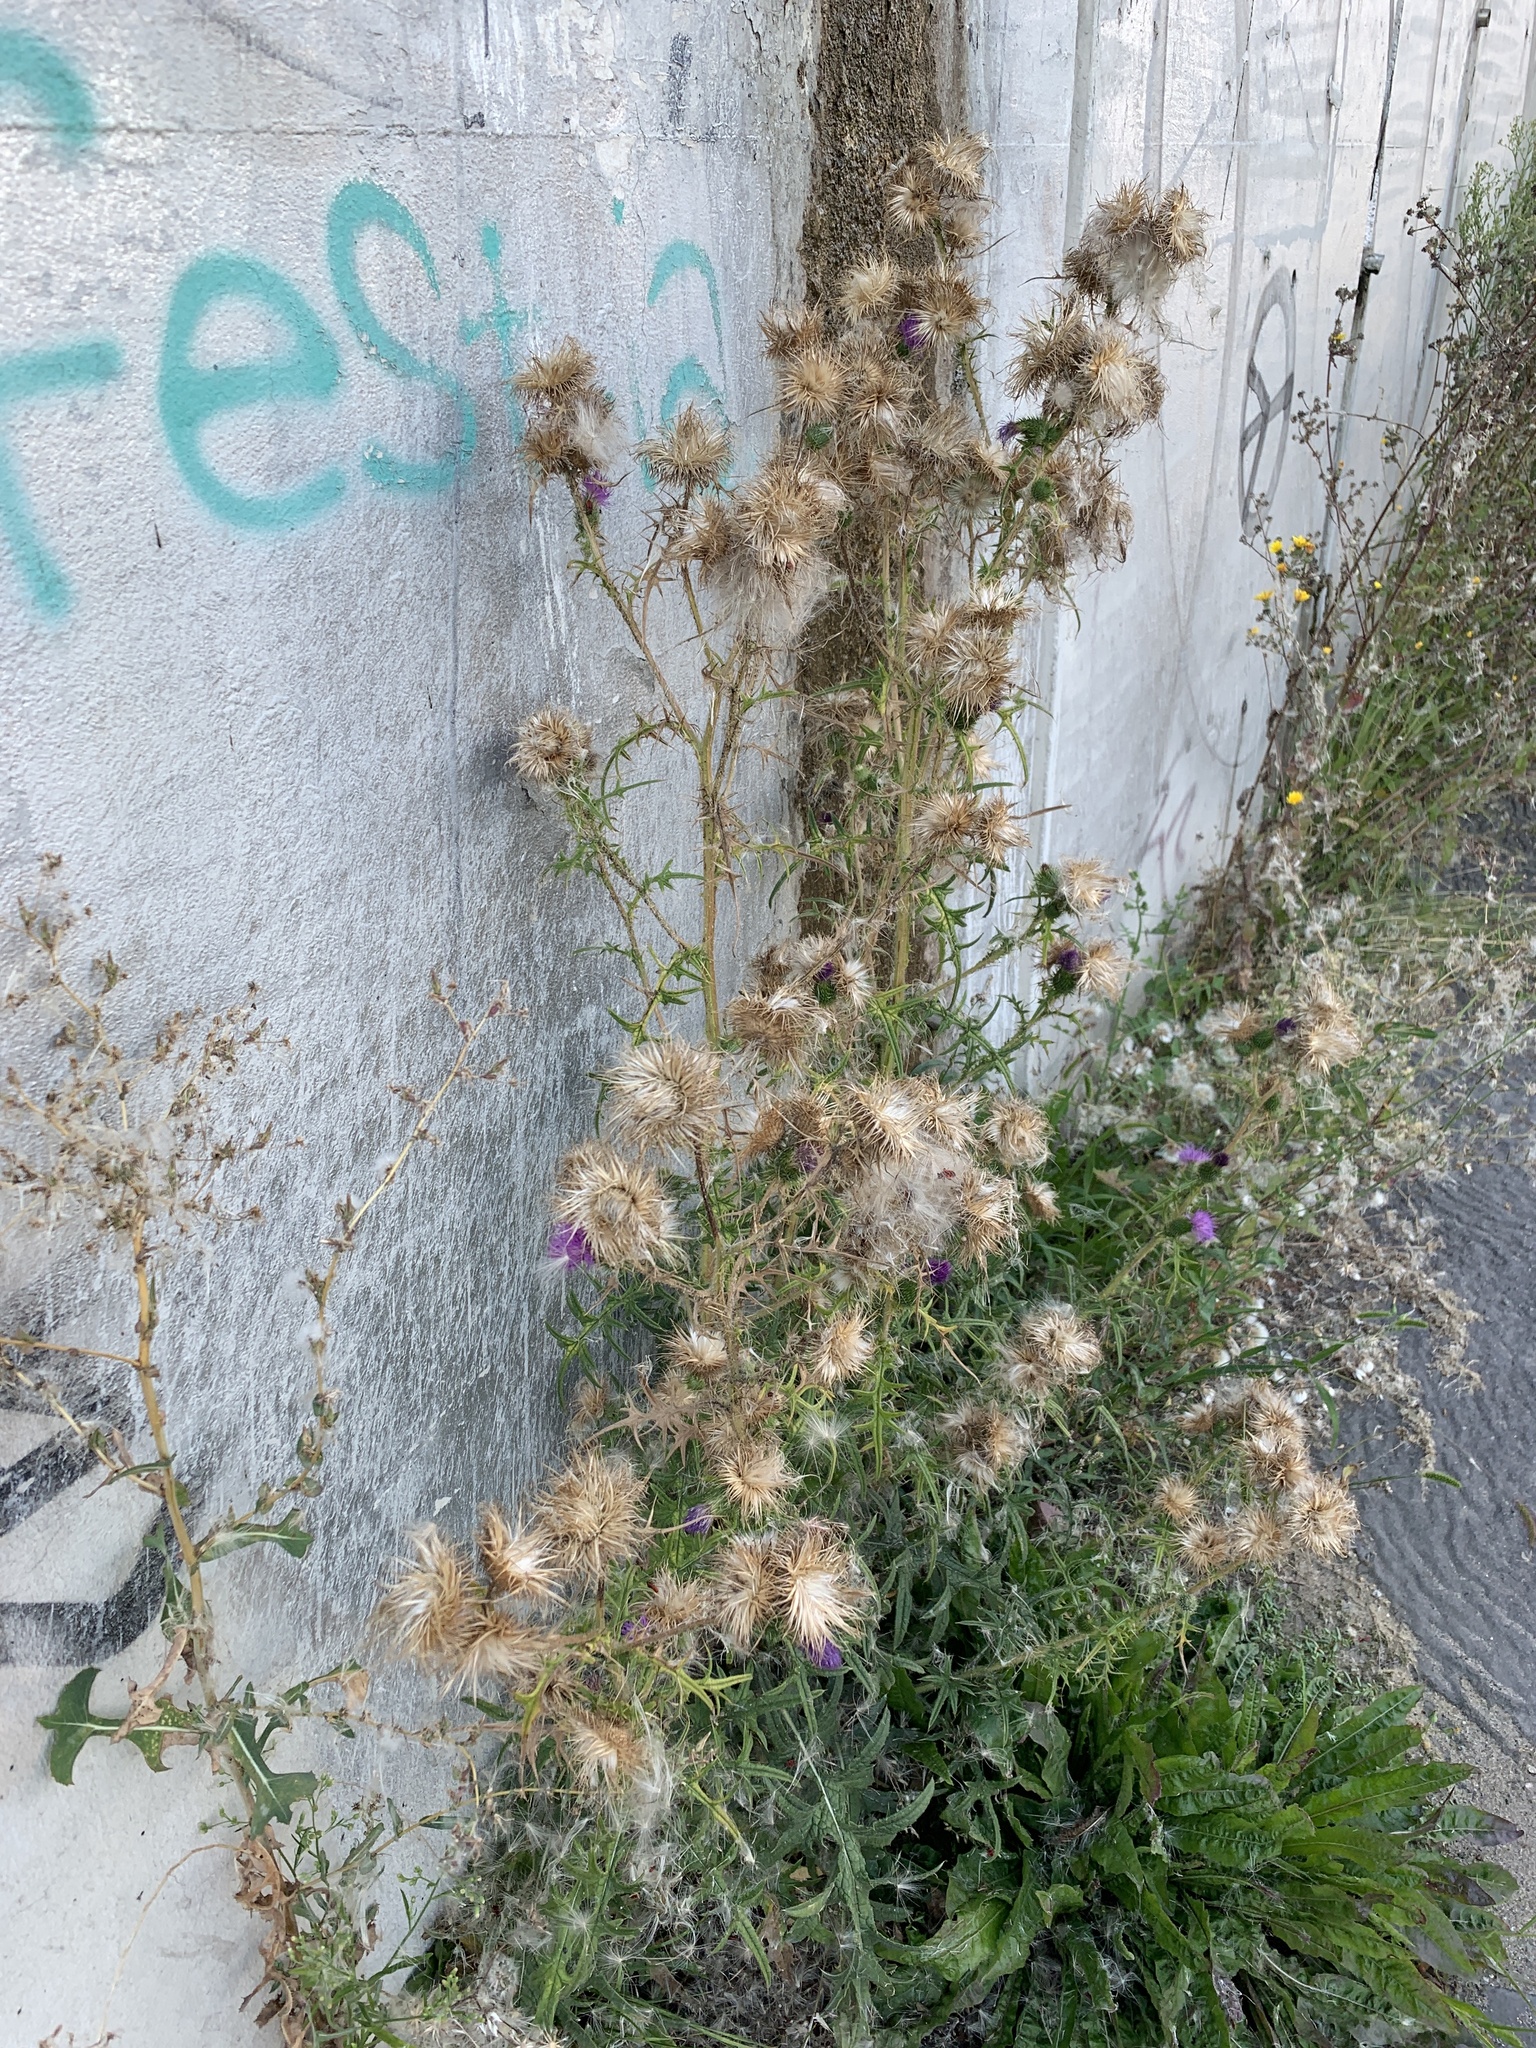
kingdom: Plantae
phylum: Tracheophyta
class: Magnoliopsida
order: Asterales
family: Asteraceae
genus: Cirsium
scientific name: Cirsium vulgare
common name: Bull thistle
